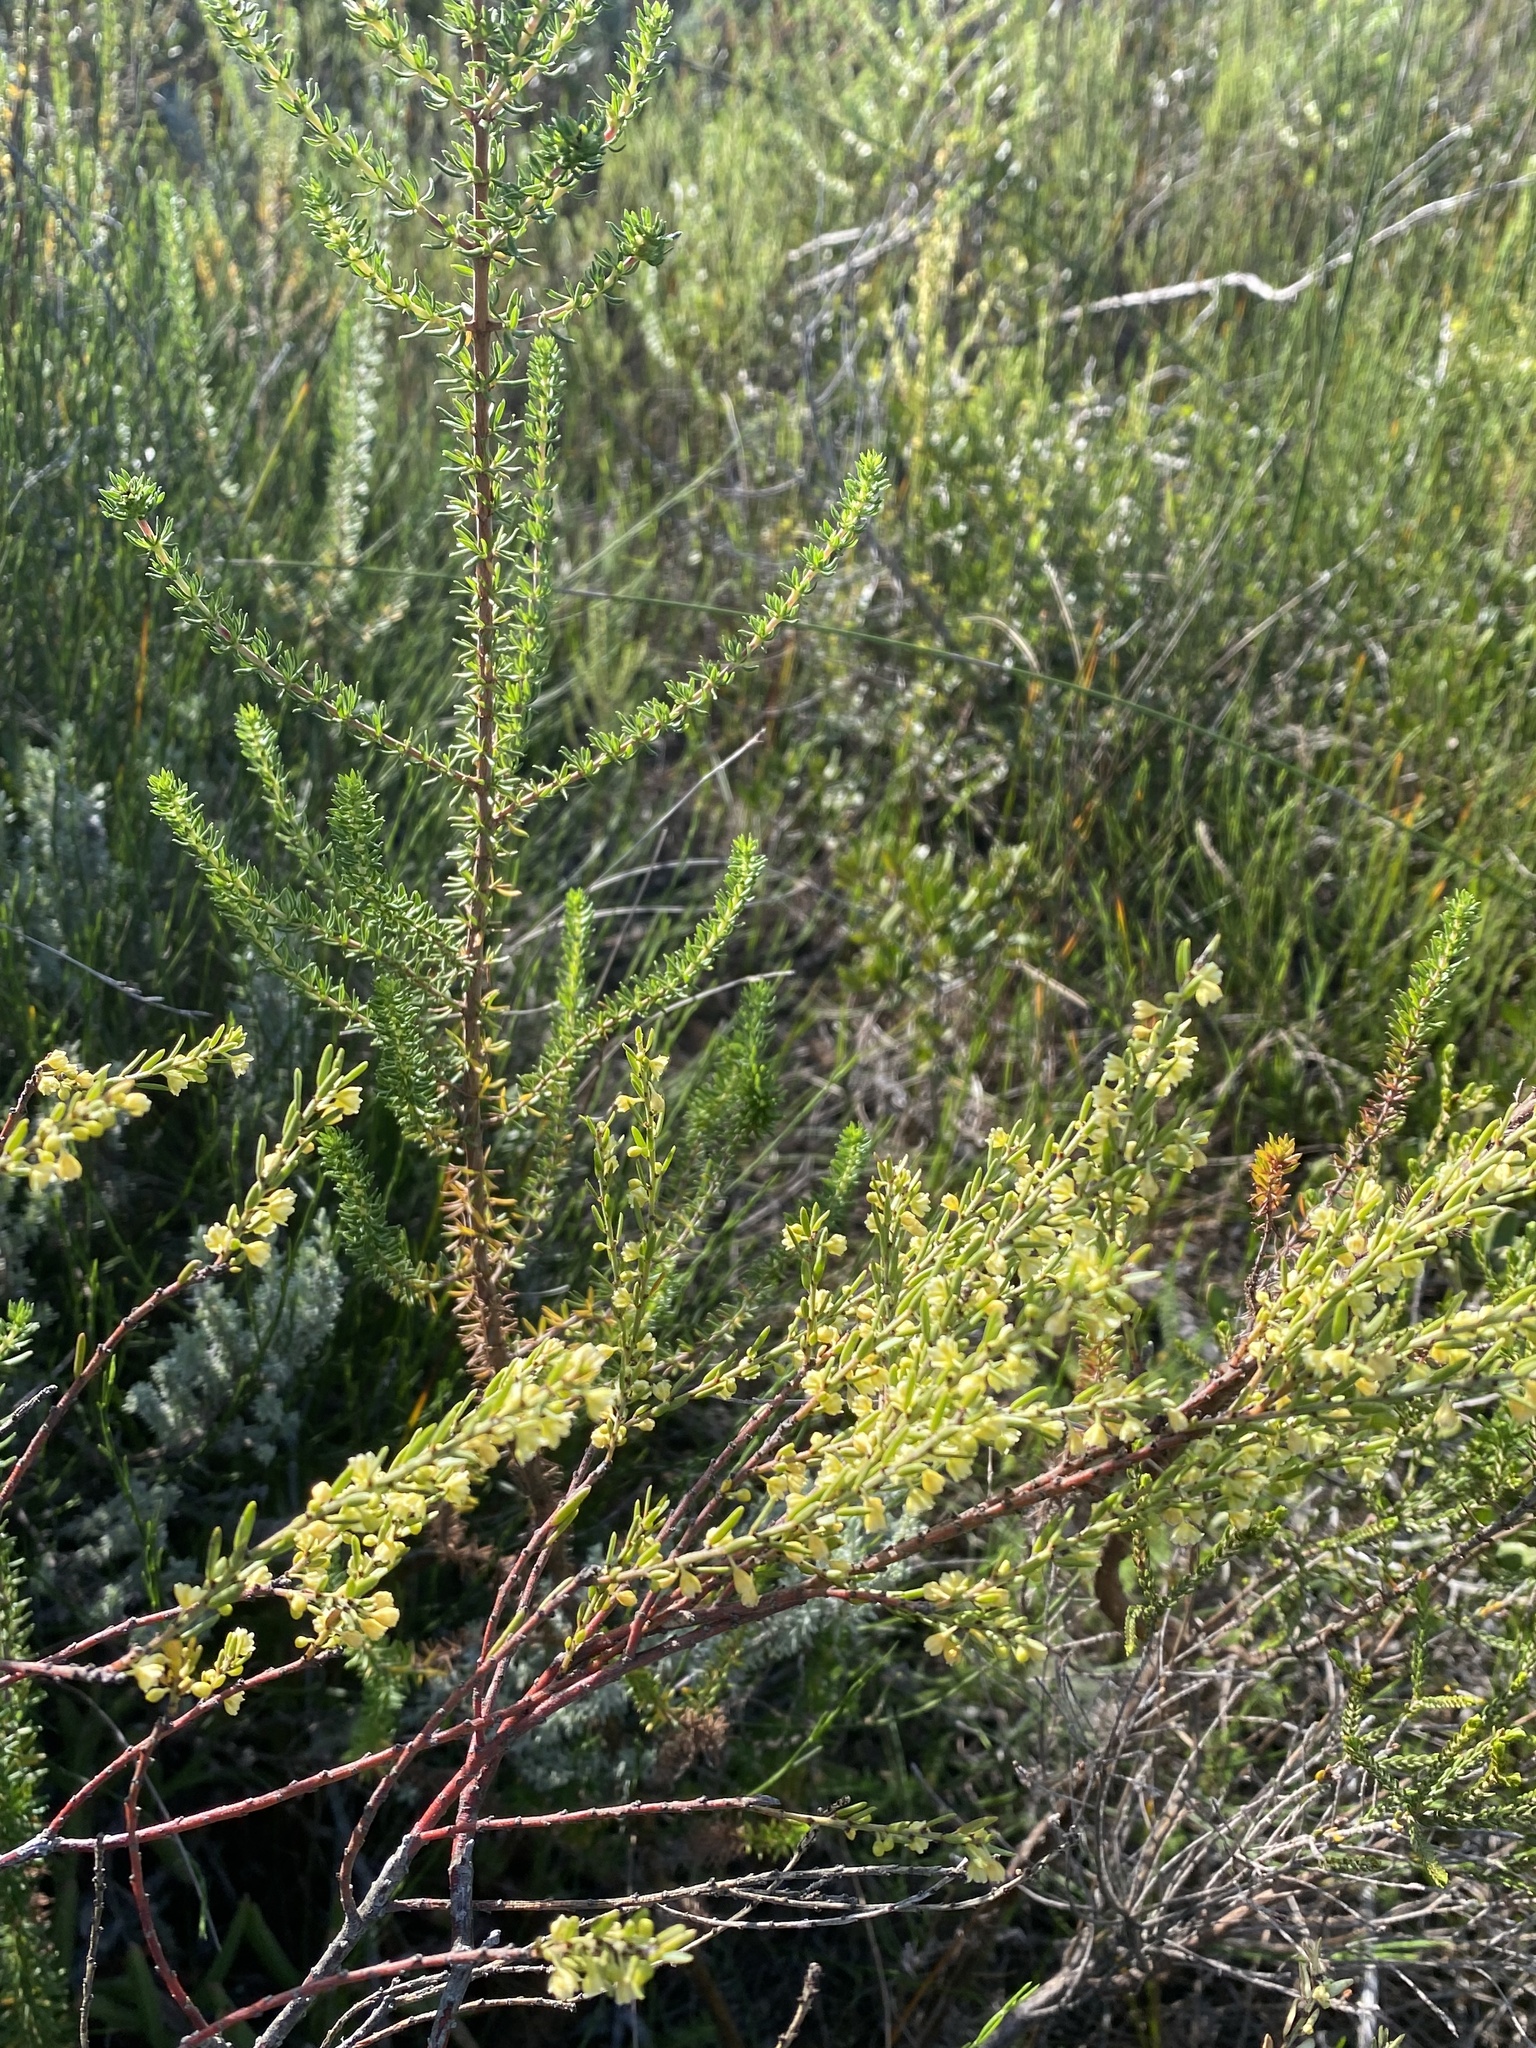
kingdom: Plantae
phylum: Tracheophyta
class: Magnoliopsida
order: Malpighiales
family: Peraceae
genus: Clutia
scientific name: Clutia ericoides
